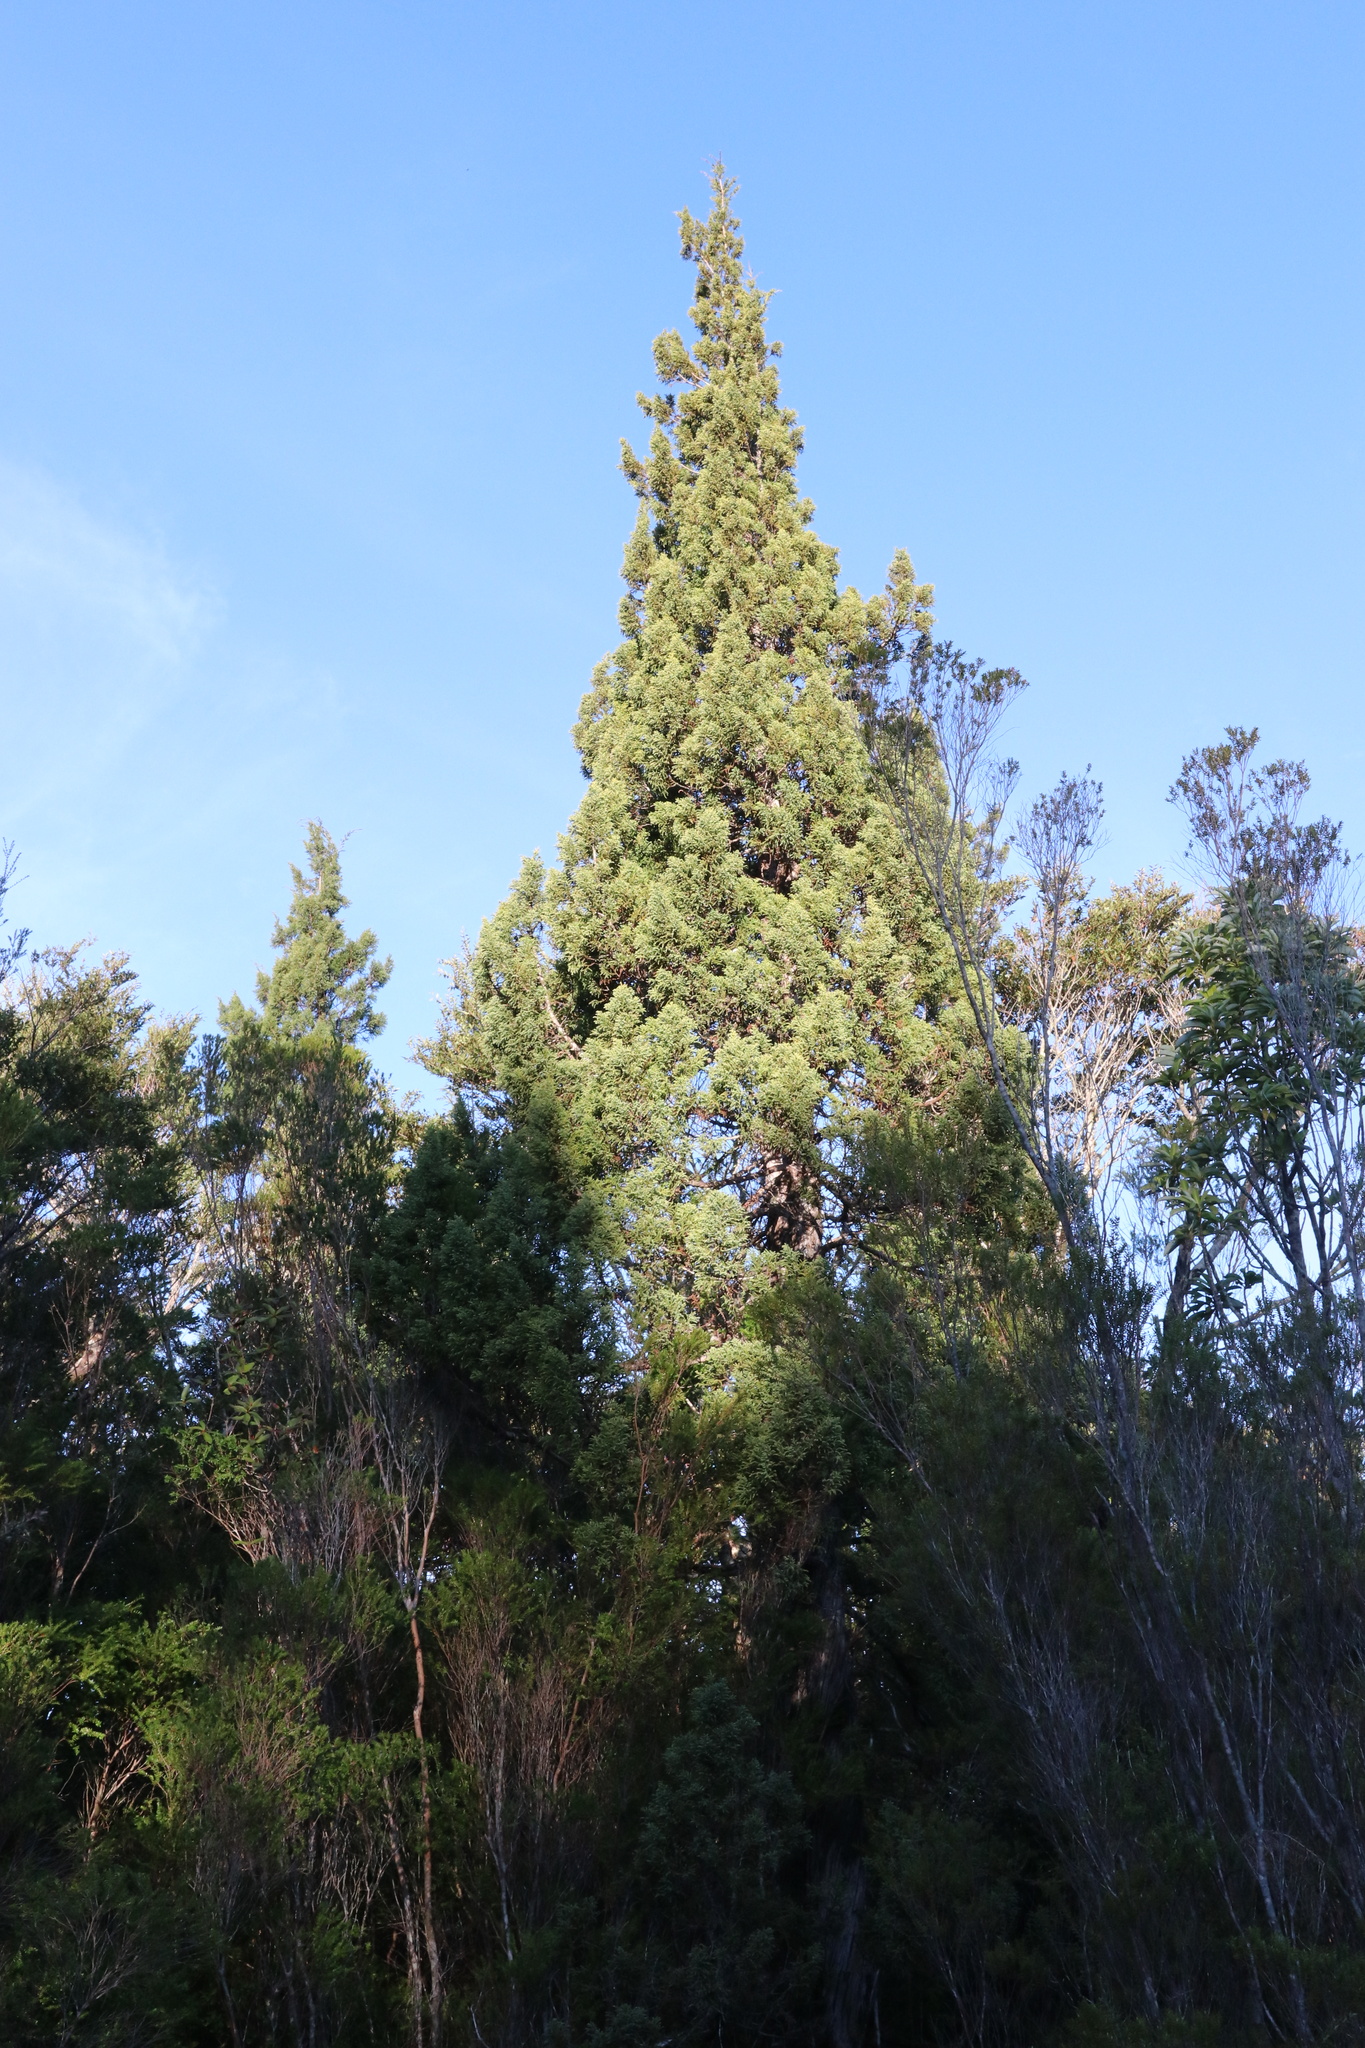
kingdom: Plantae
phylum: Tracheophyta
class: Pinopsida
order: Pinales
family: Cupressaceae
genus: Fitzroya
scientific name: Fitzroya cupressoides
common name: Patagonian cypress
